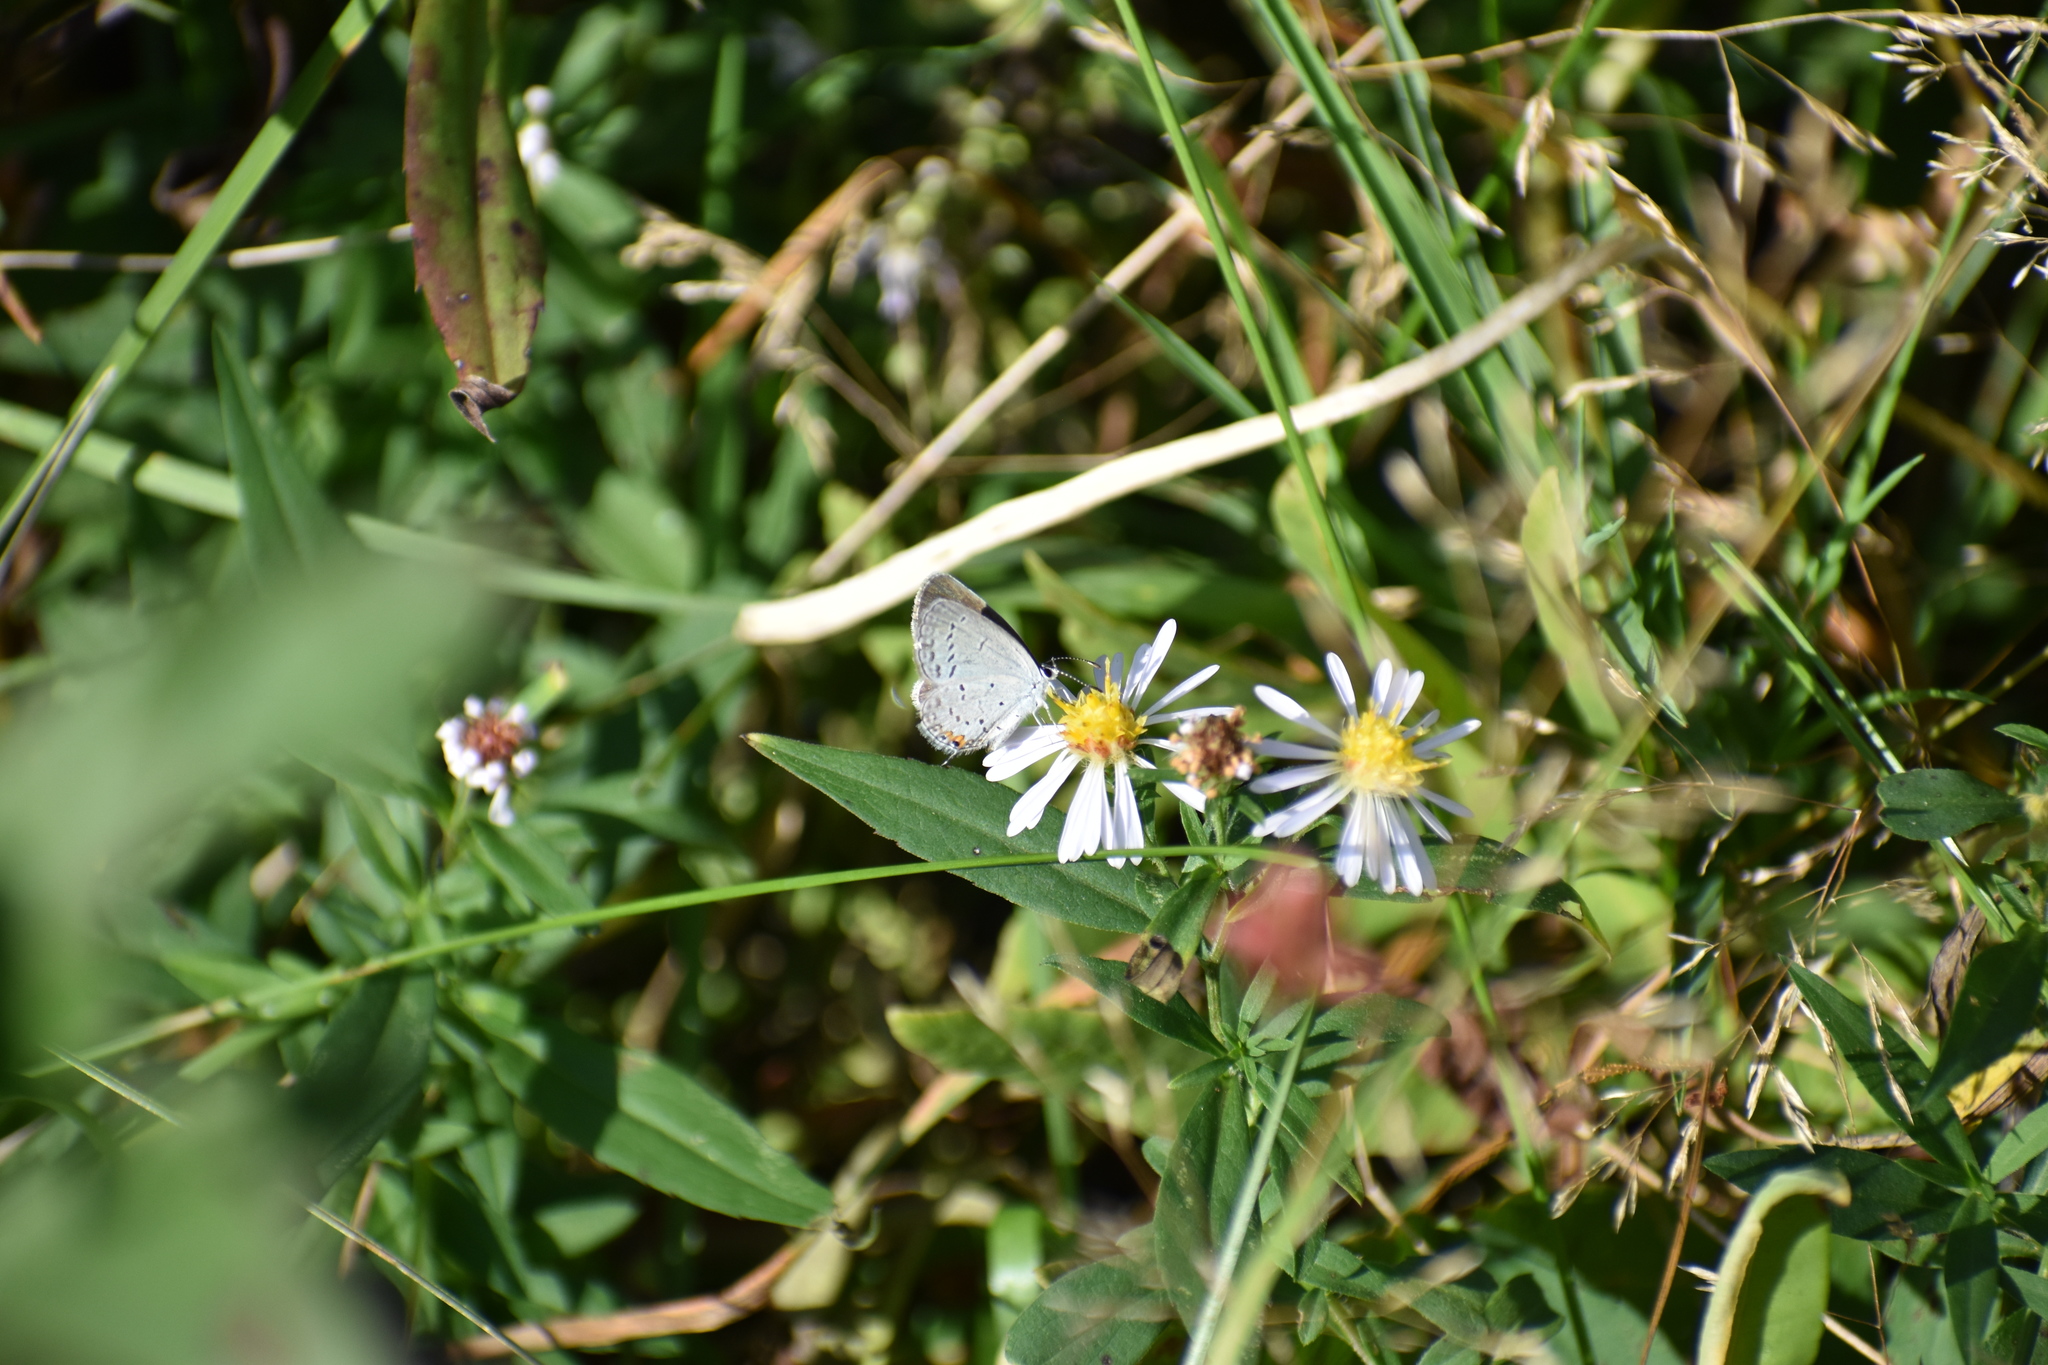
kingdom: Animalia
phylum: Arthropoda
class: Insecta
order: Lepidoptera
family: Lycaenidae
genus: Elkalyce
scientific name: Elkalyce comyntas
